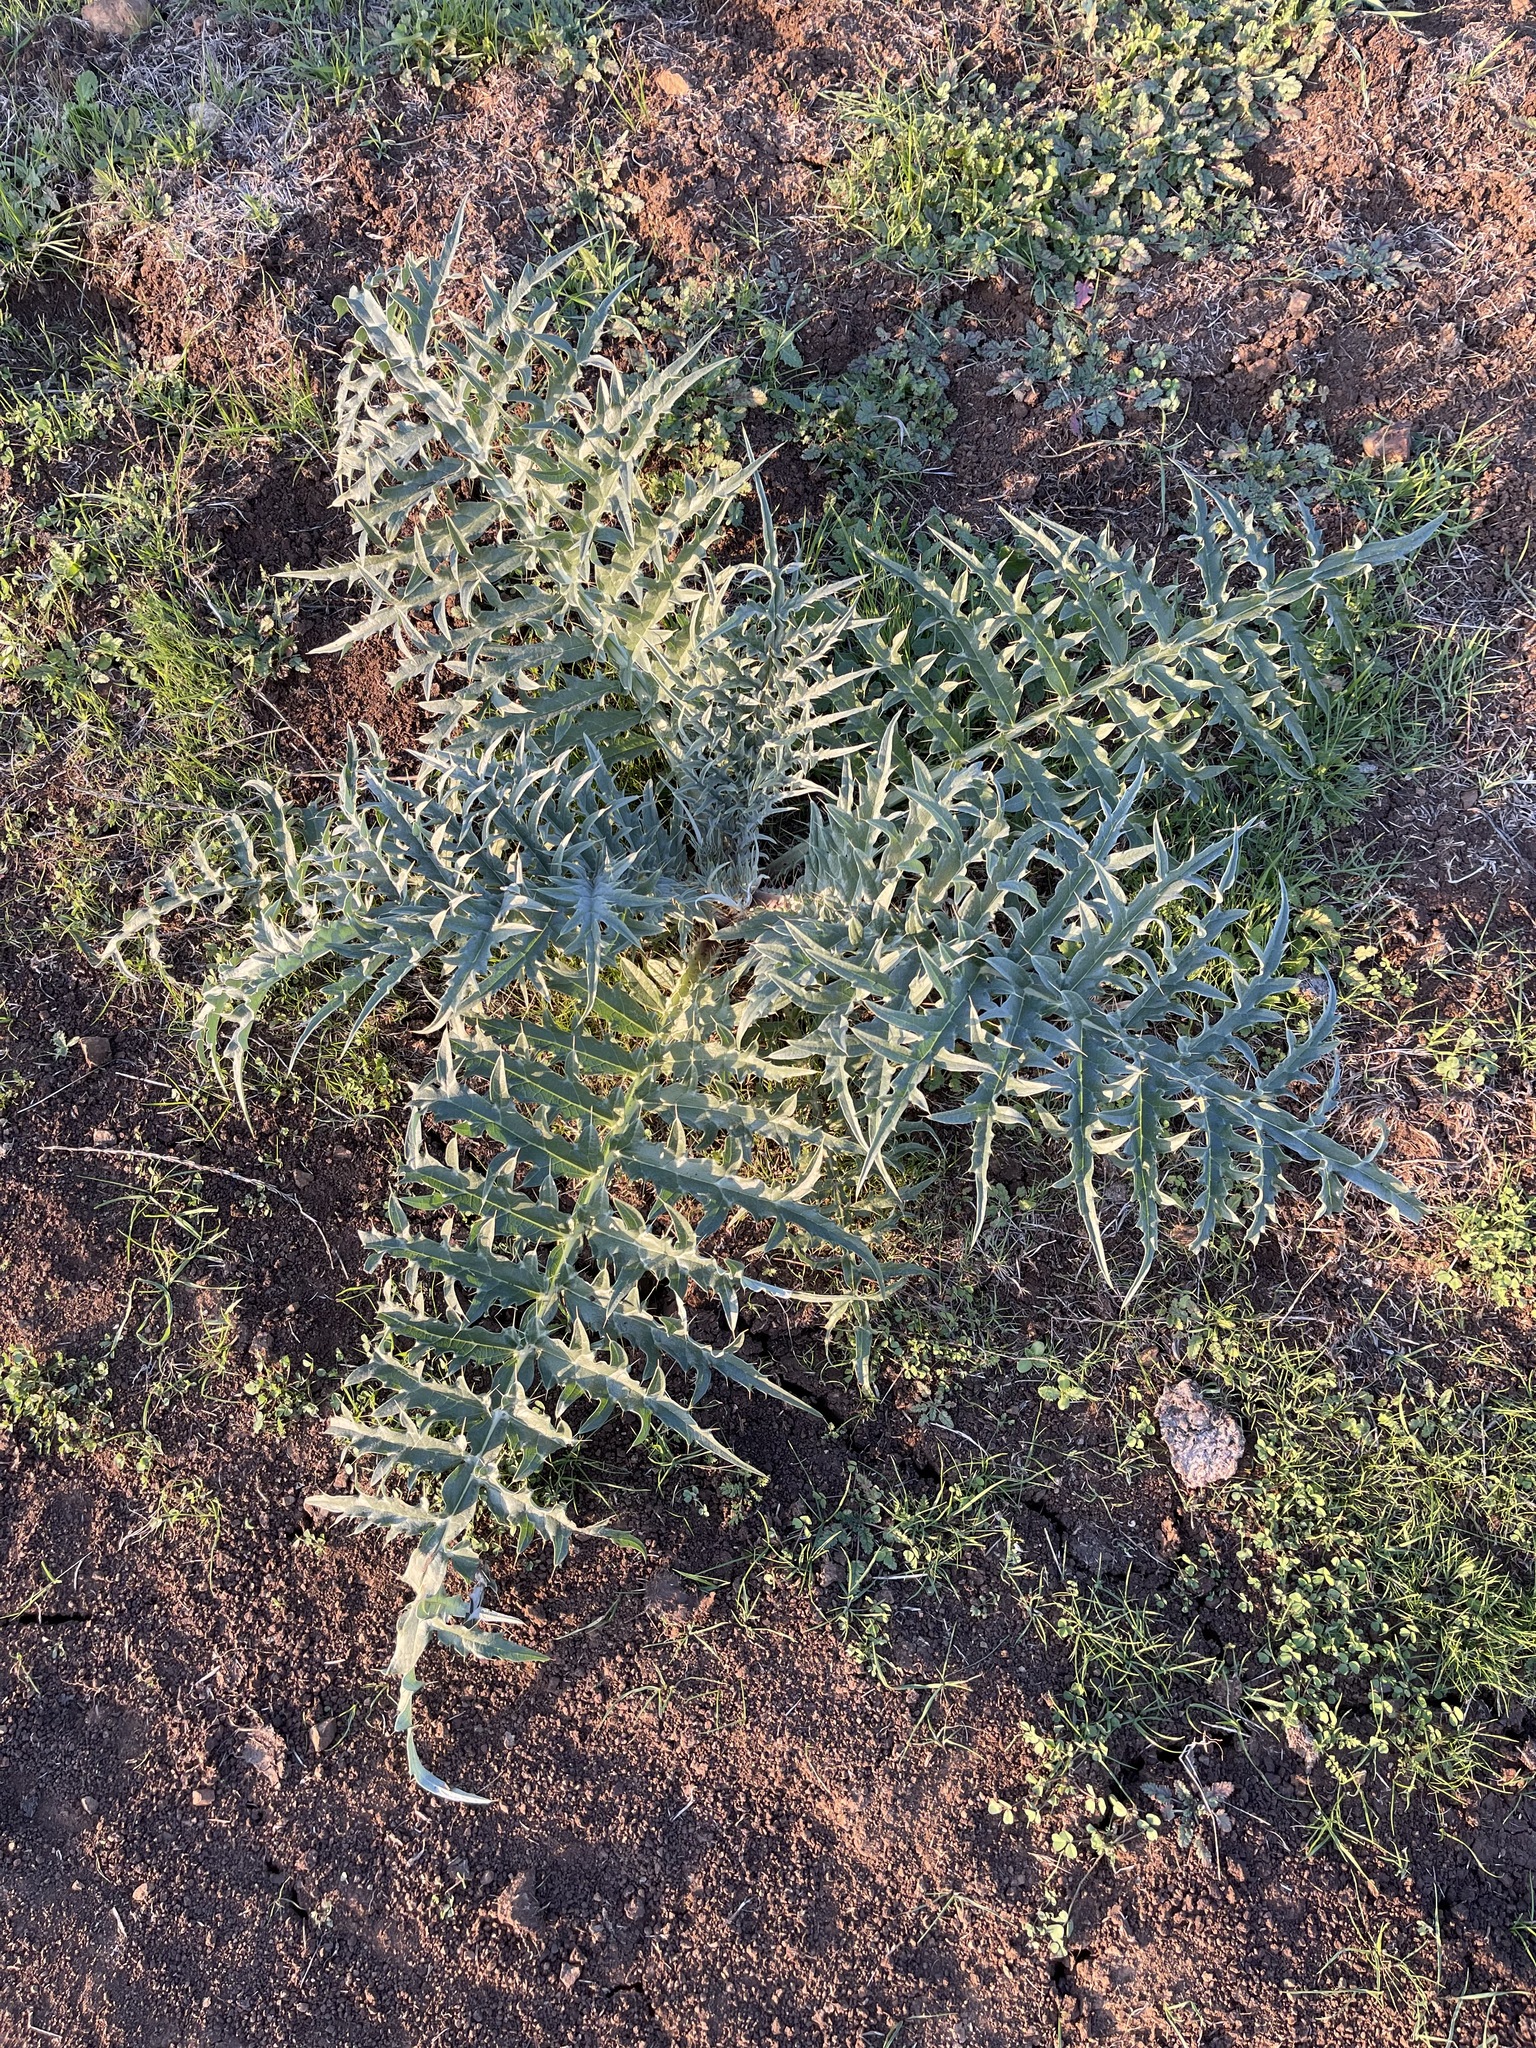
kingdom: Plantae
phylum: Tracheophyta
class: Magnoliopsida
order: Asterales
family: Asteraceae
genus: Cynara
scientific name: Cynara cardunculus
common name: Globe artichoke
